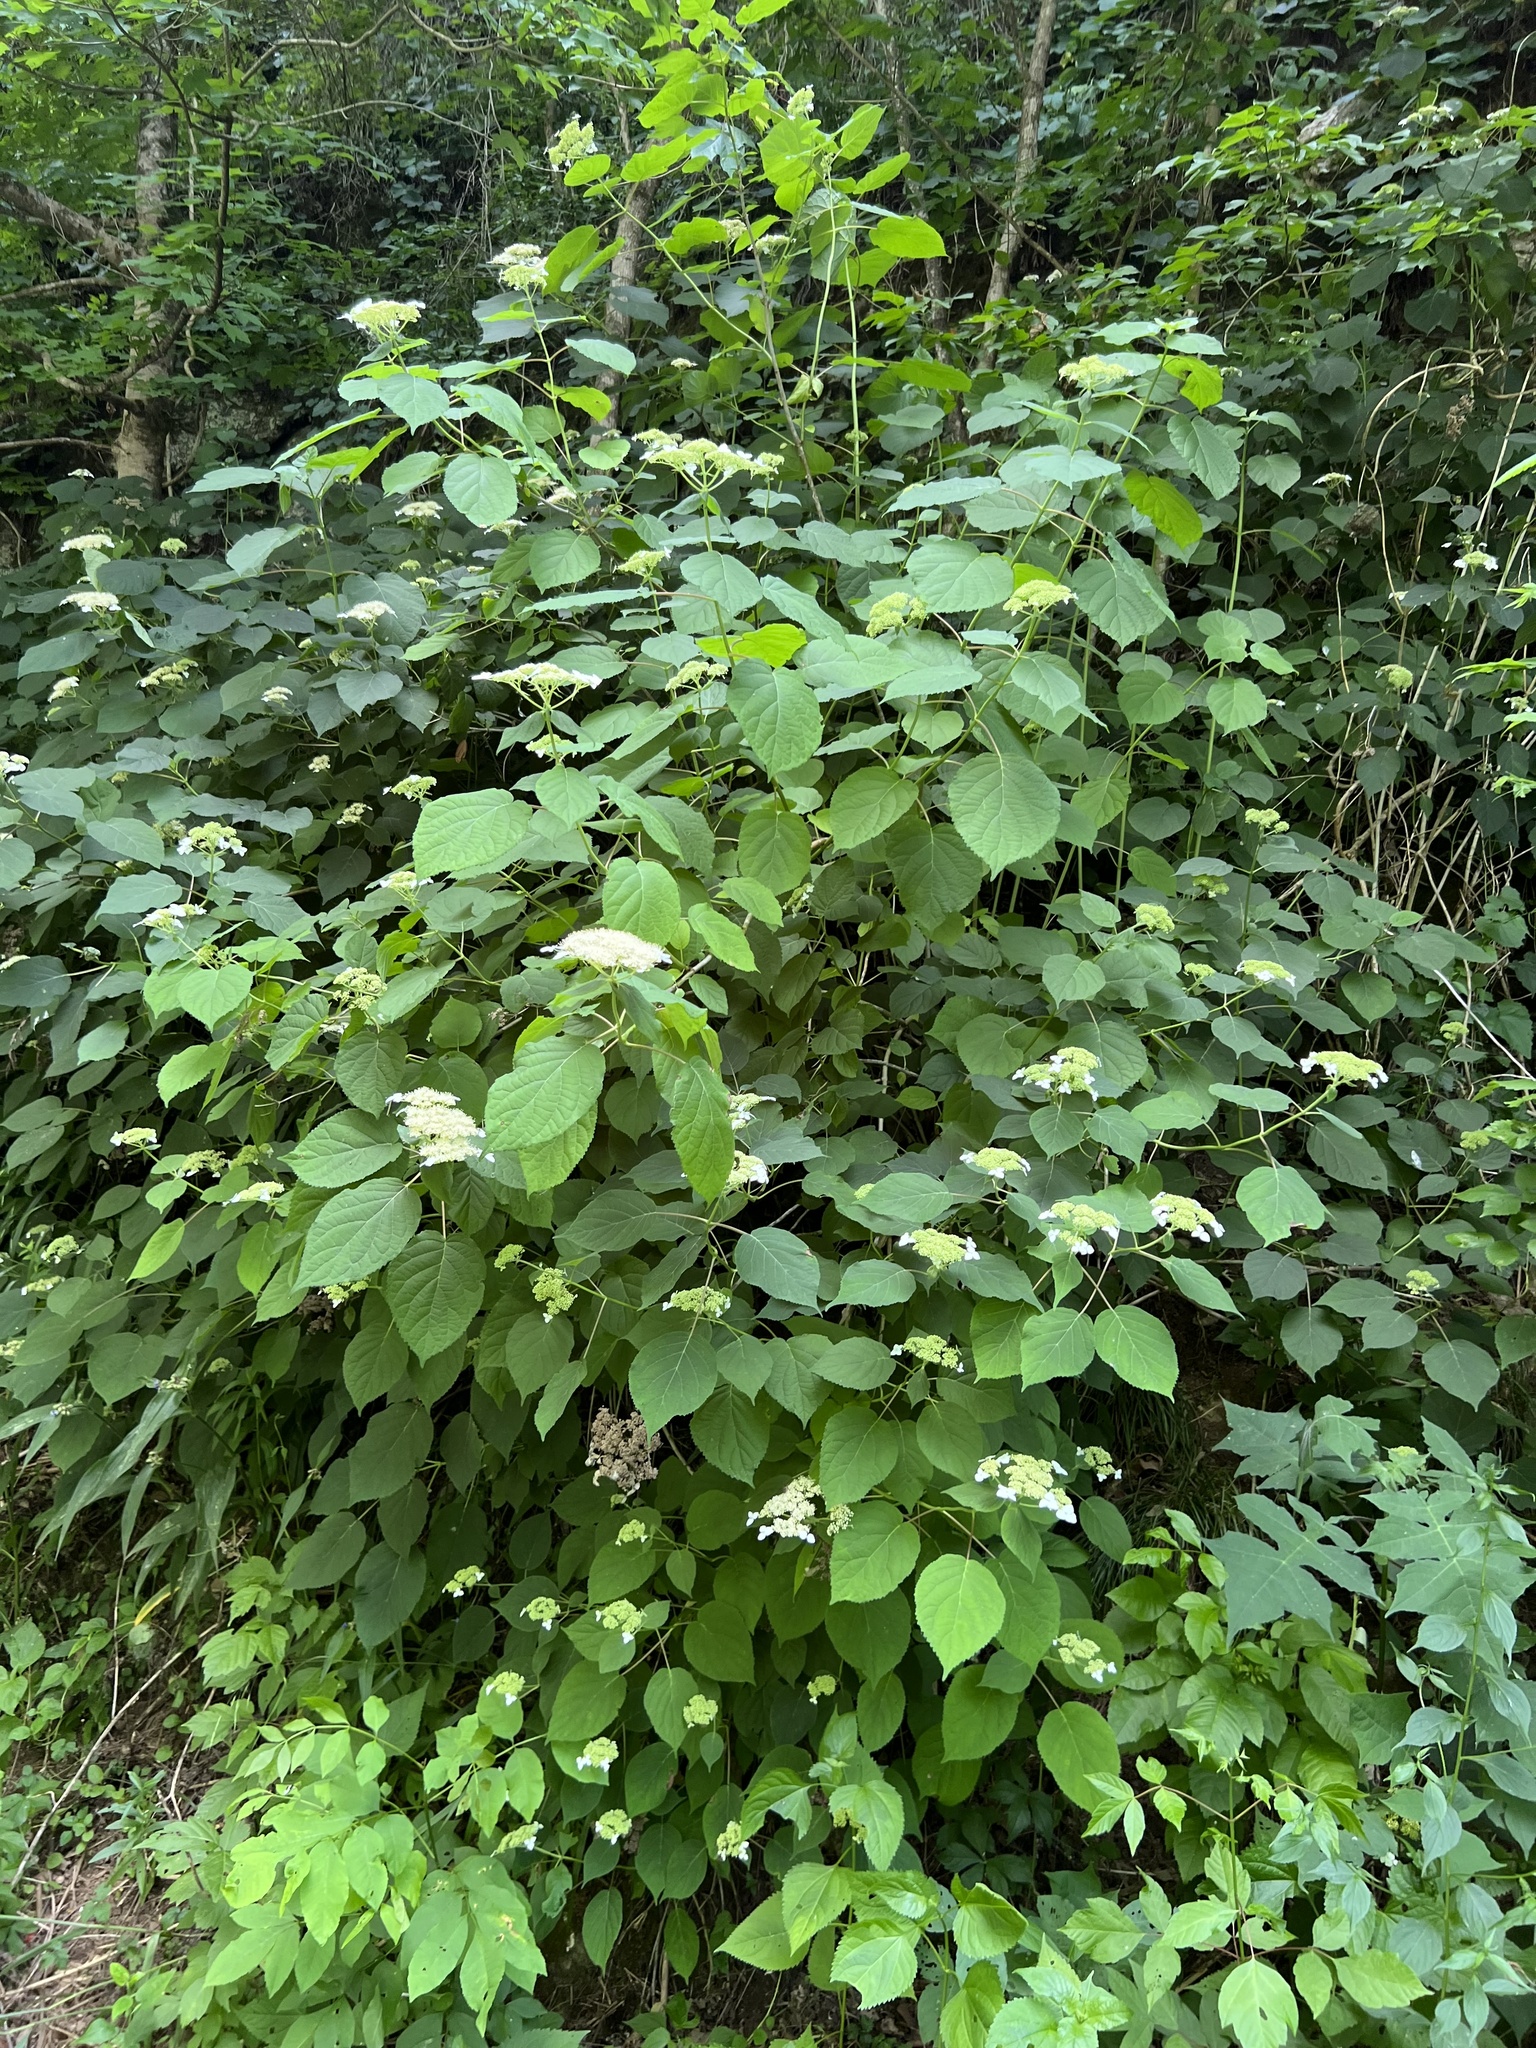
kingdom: Plantae
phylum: Tracheophyta
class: Magnoliopsida
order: Cornales
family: Hydrangeaceae
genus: Hydrangea
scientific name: Hydrangea arborescens
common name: Sevenbark
